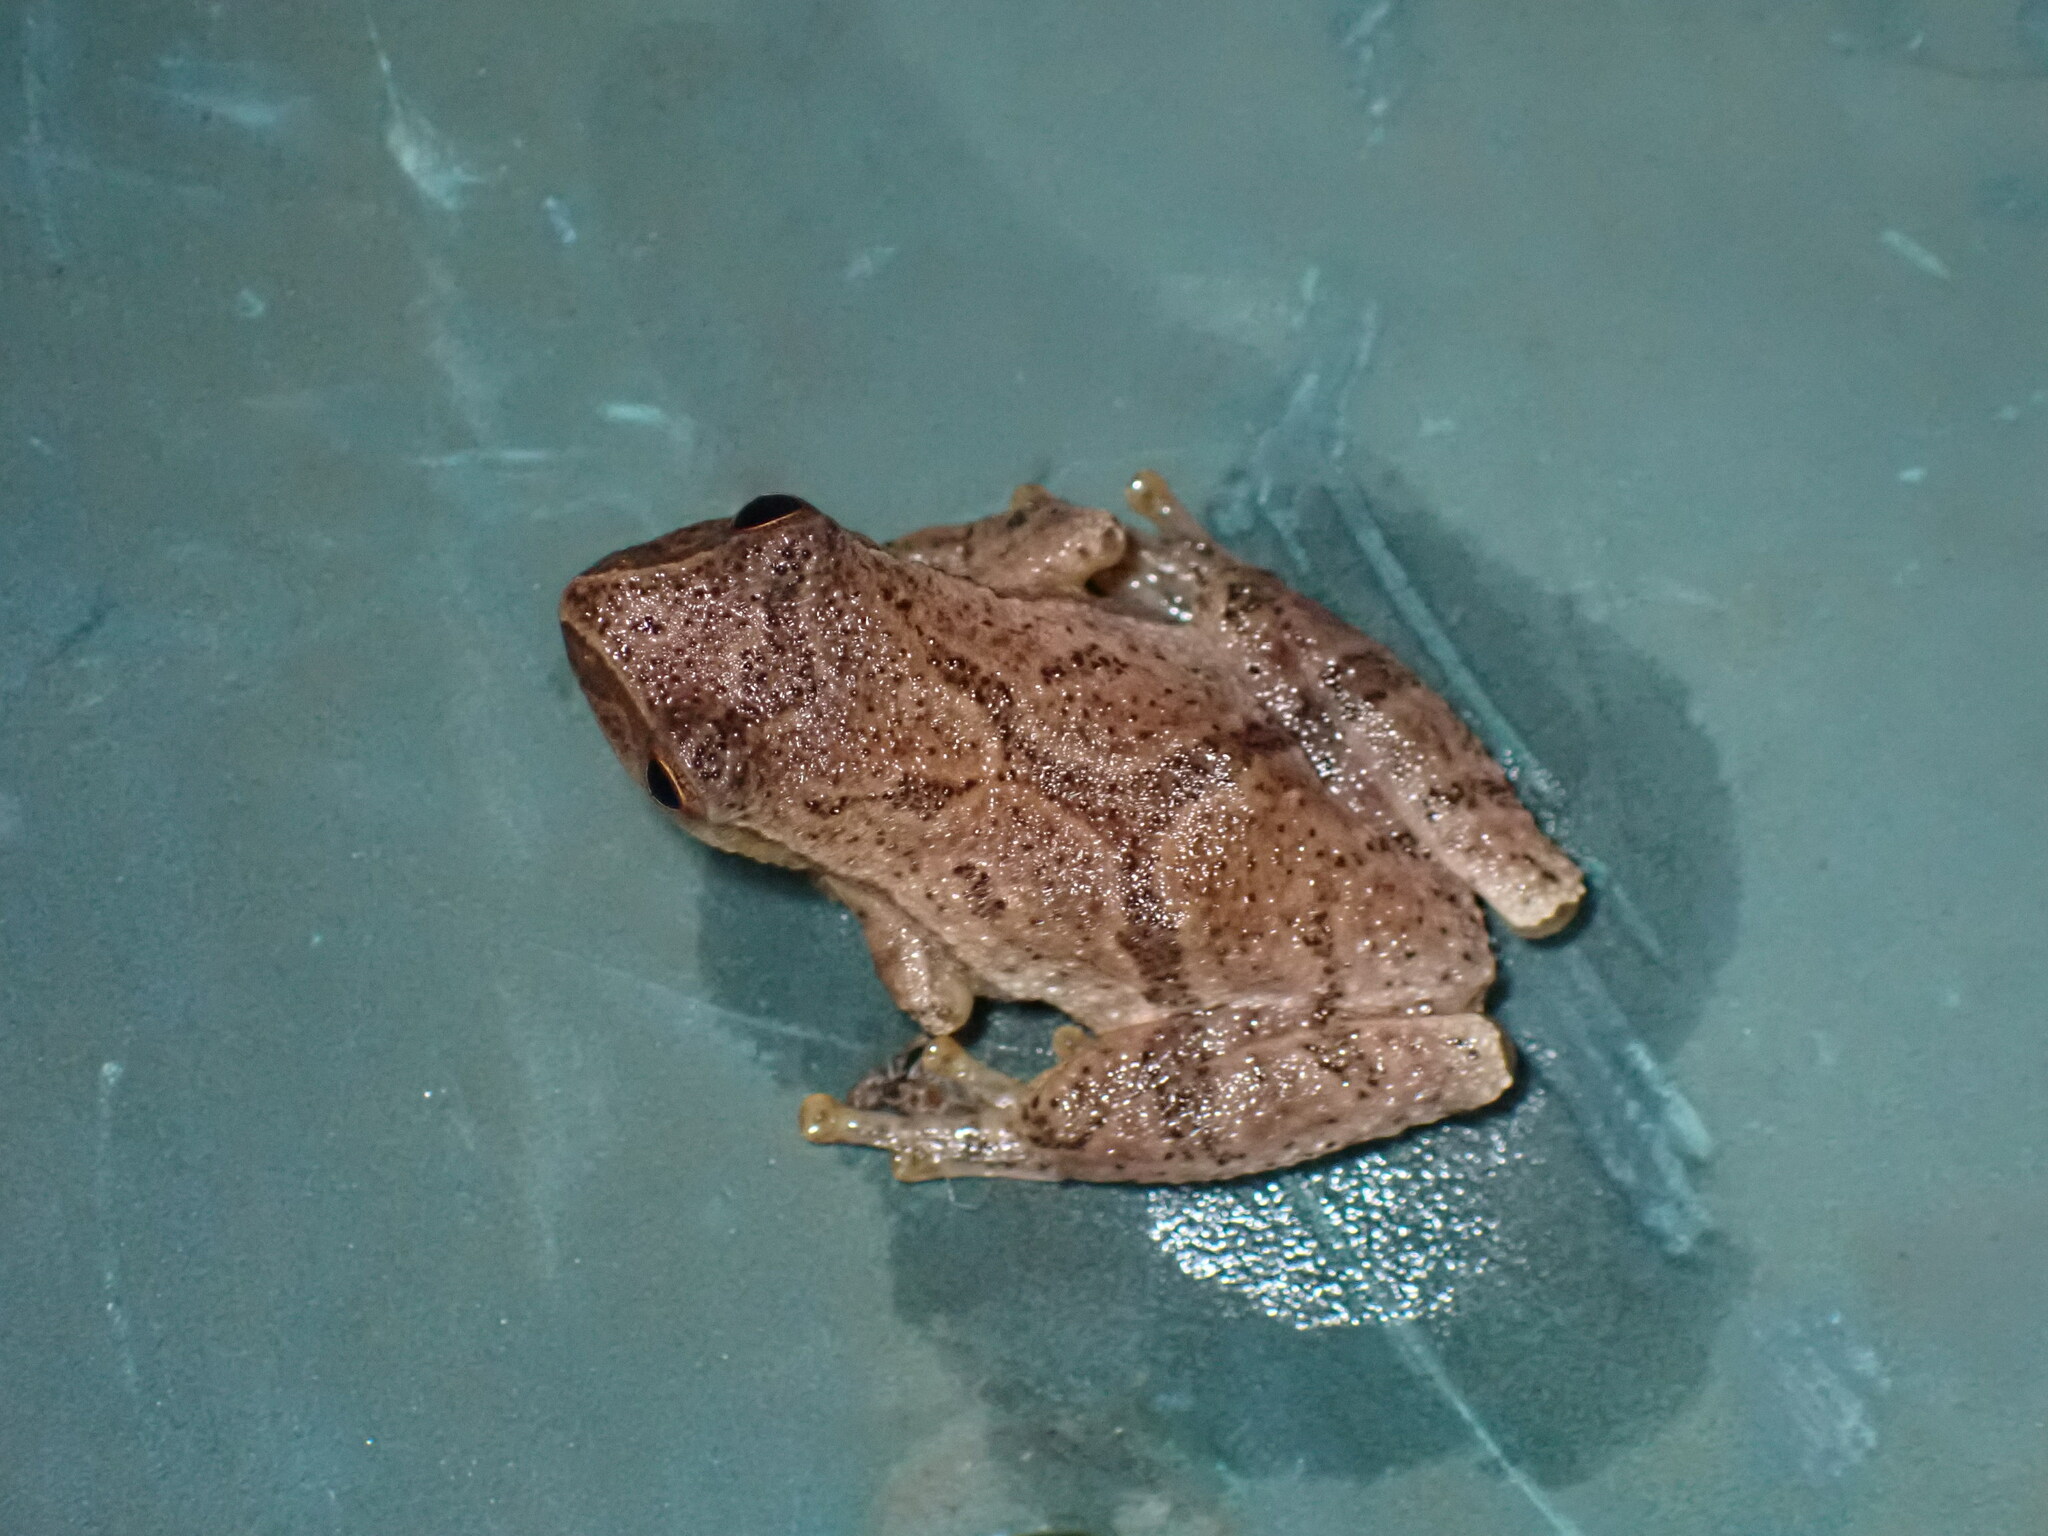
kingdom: Animalia
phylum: Chordata
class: Amphibia
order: Anura
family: Hylidae
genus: Pseudacris
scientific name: Pseudacris crucifer
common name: Spring peeper
